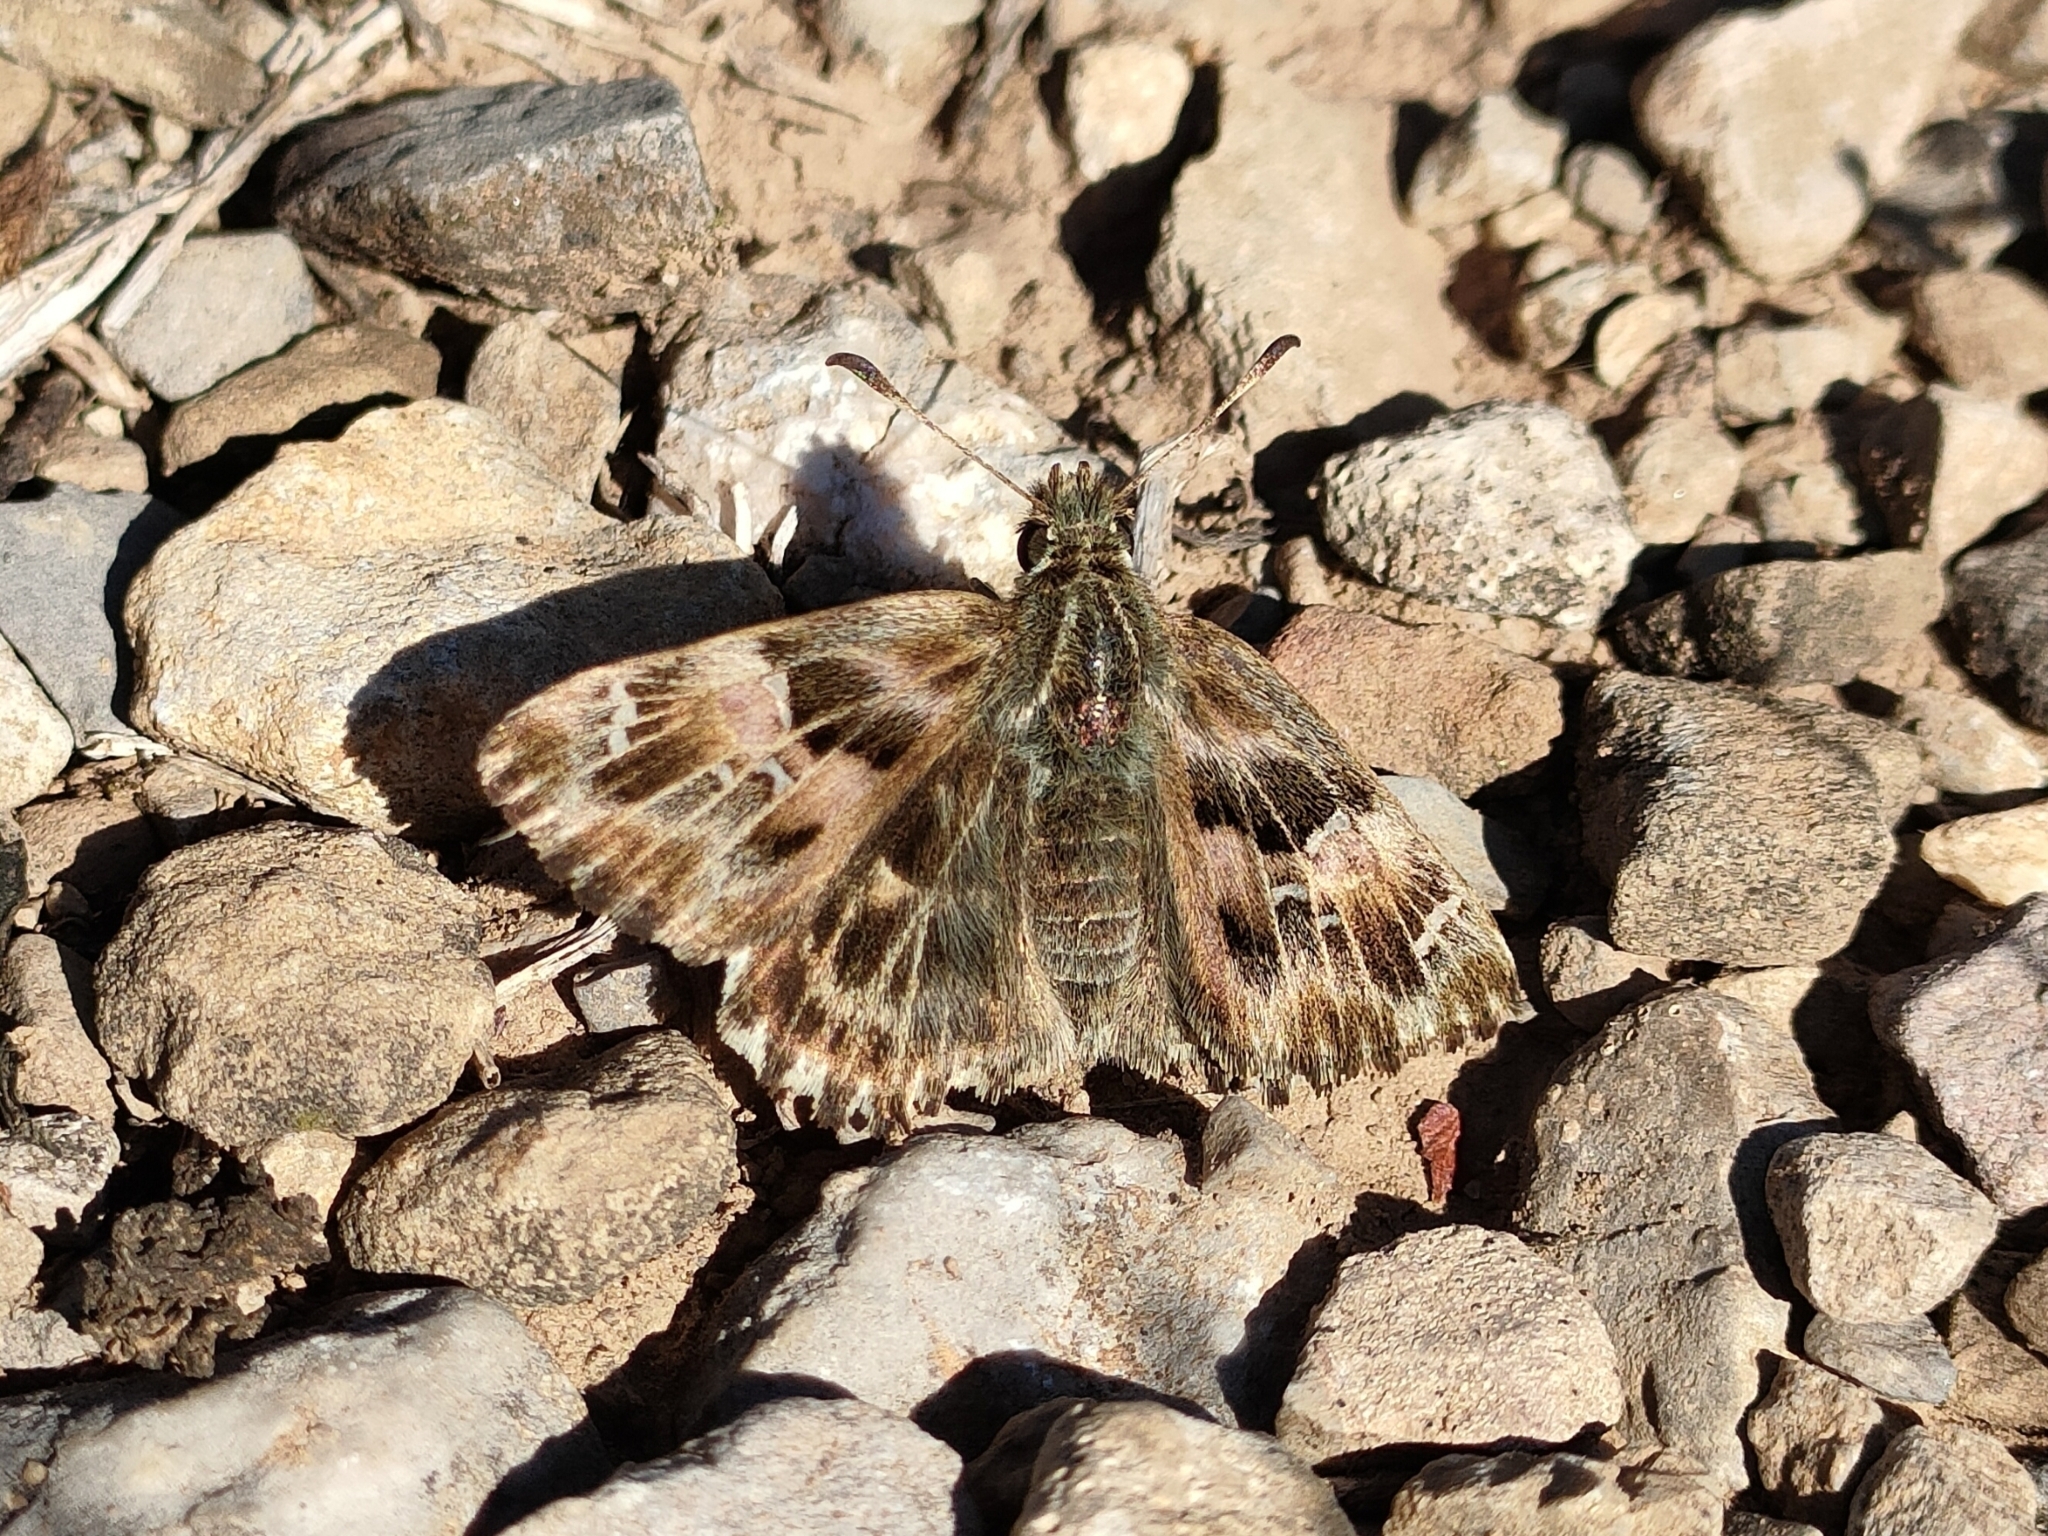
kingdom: Animalia
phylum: Arthropoda
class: Insecta
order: Lepidoptera
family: Hesperiidae
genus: Carcharodus
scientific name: Carcharodus alceae
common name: Mallow skipper
